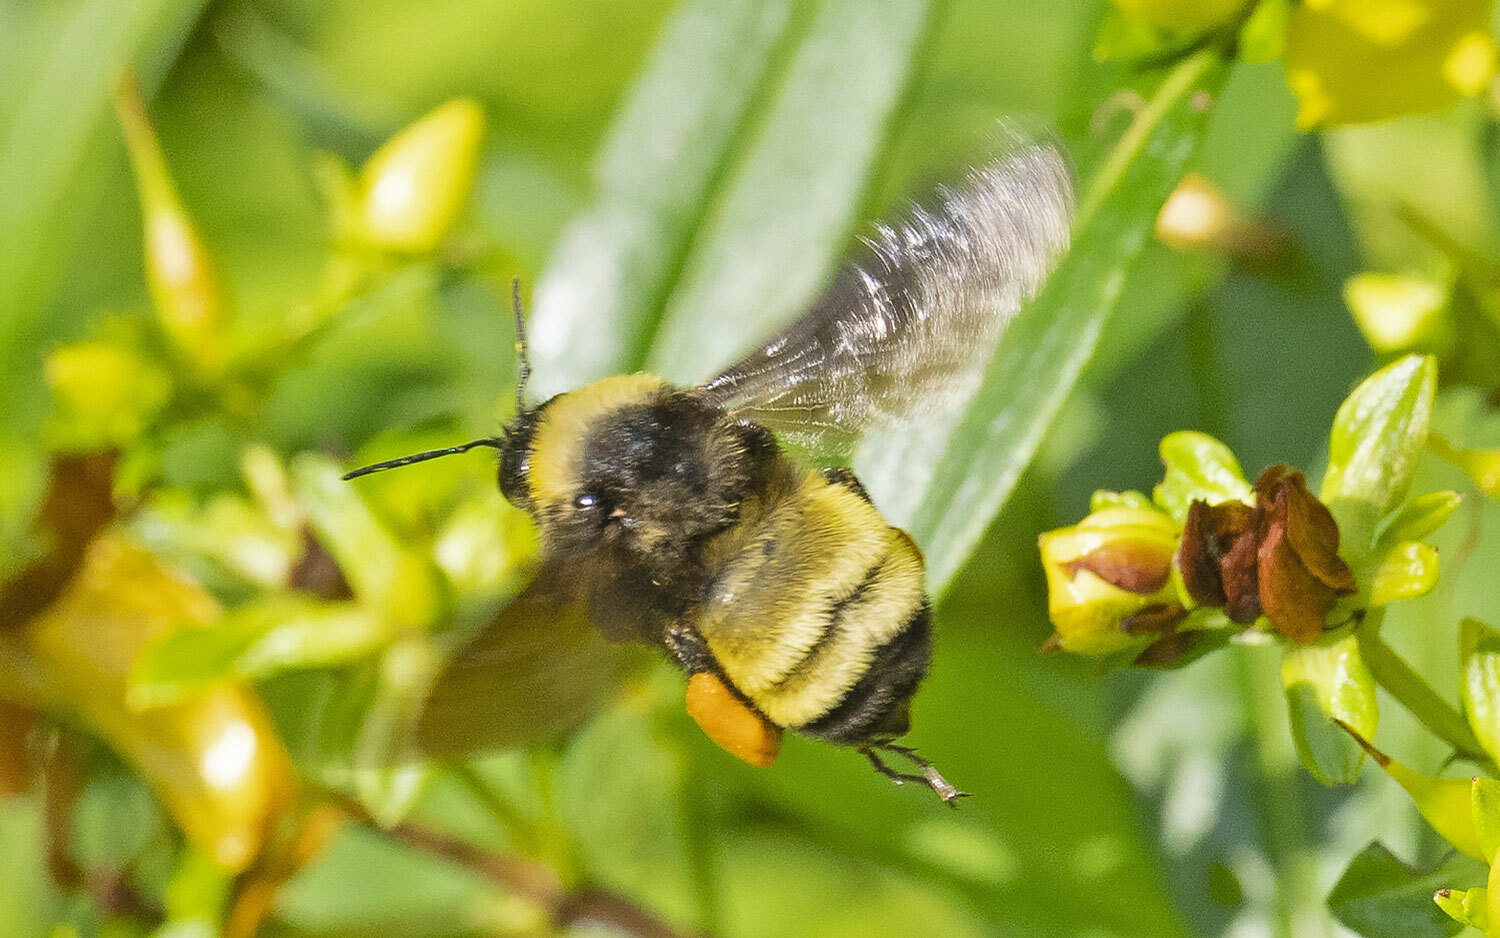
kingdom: Animalia
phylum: Arthropoda
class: Insecta
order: Hymenoptera
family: Apidae
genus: Bombus
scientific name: Bombus pensylvanicus
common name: Bumble bee
